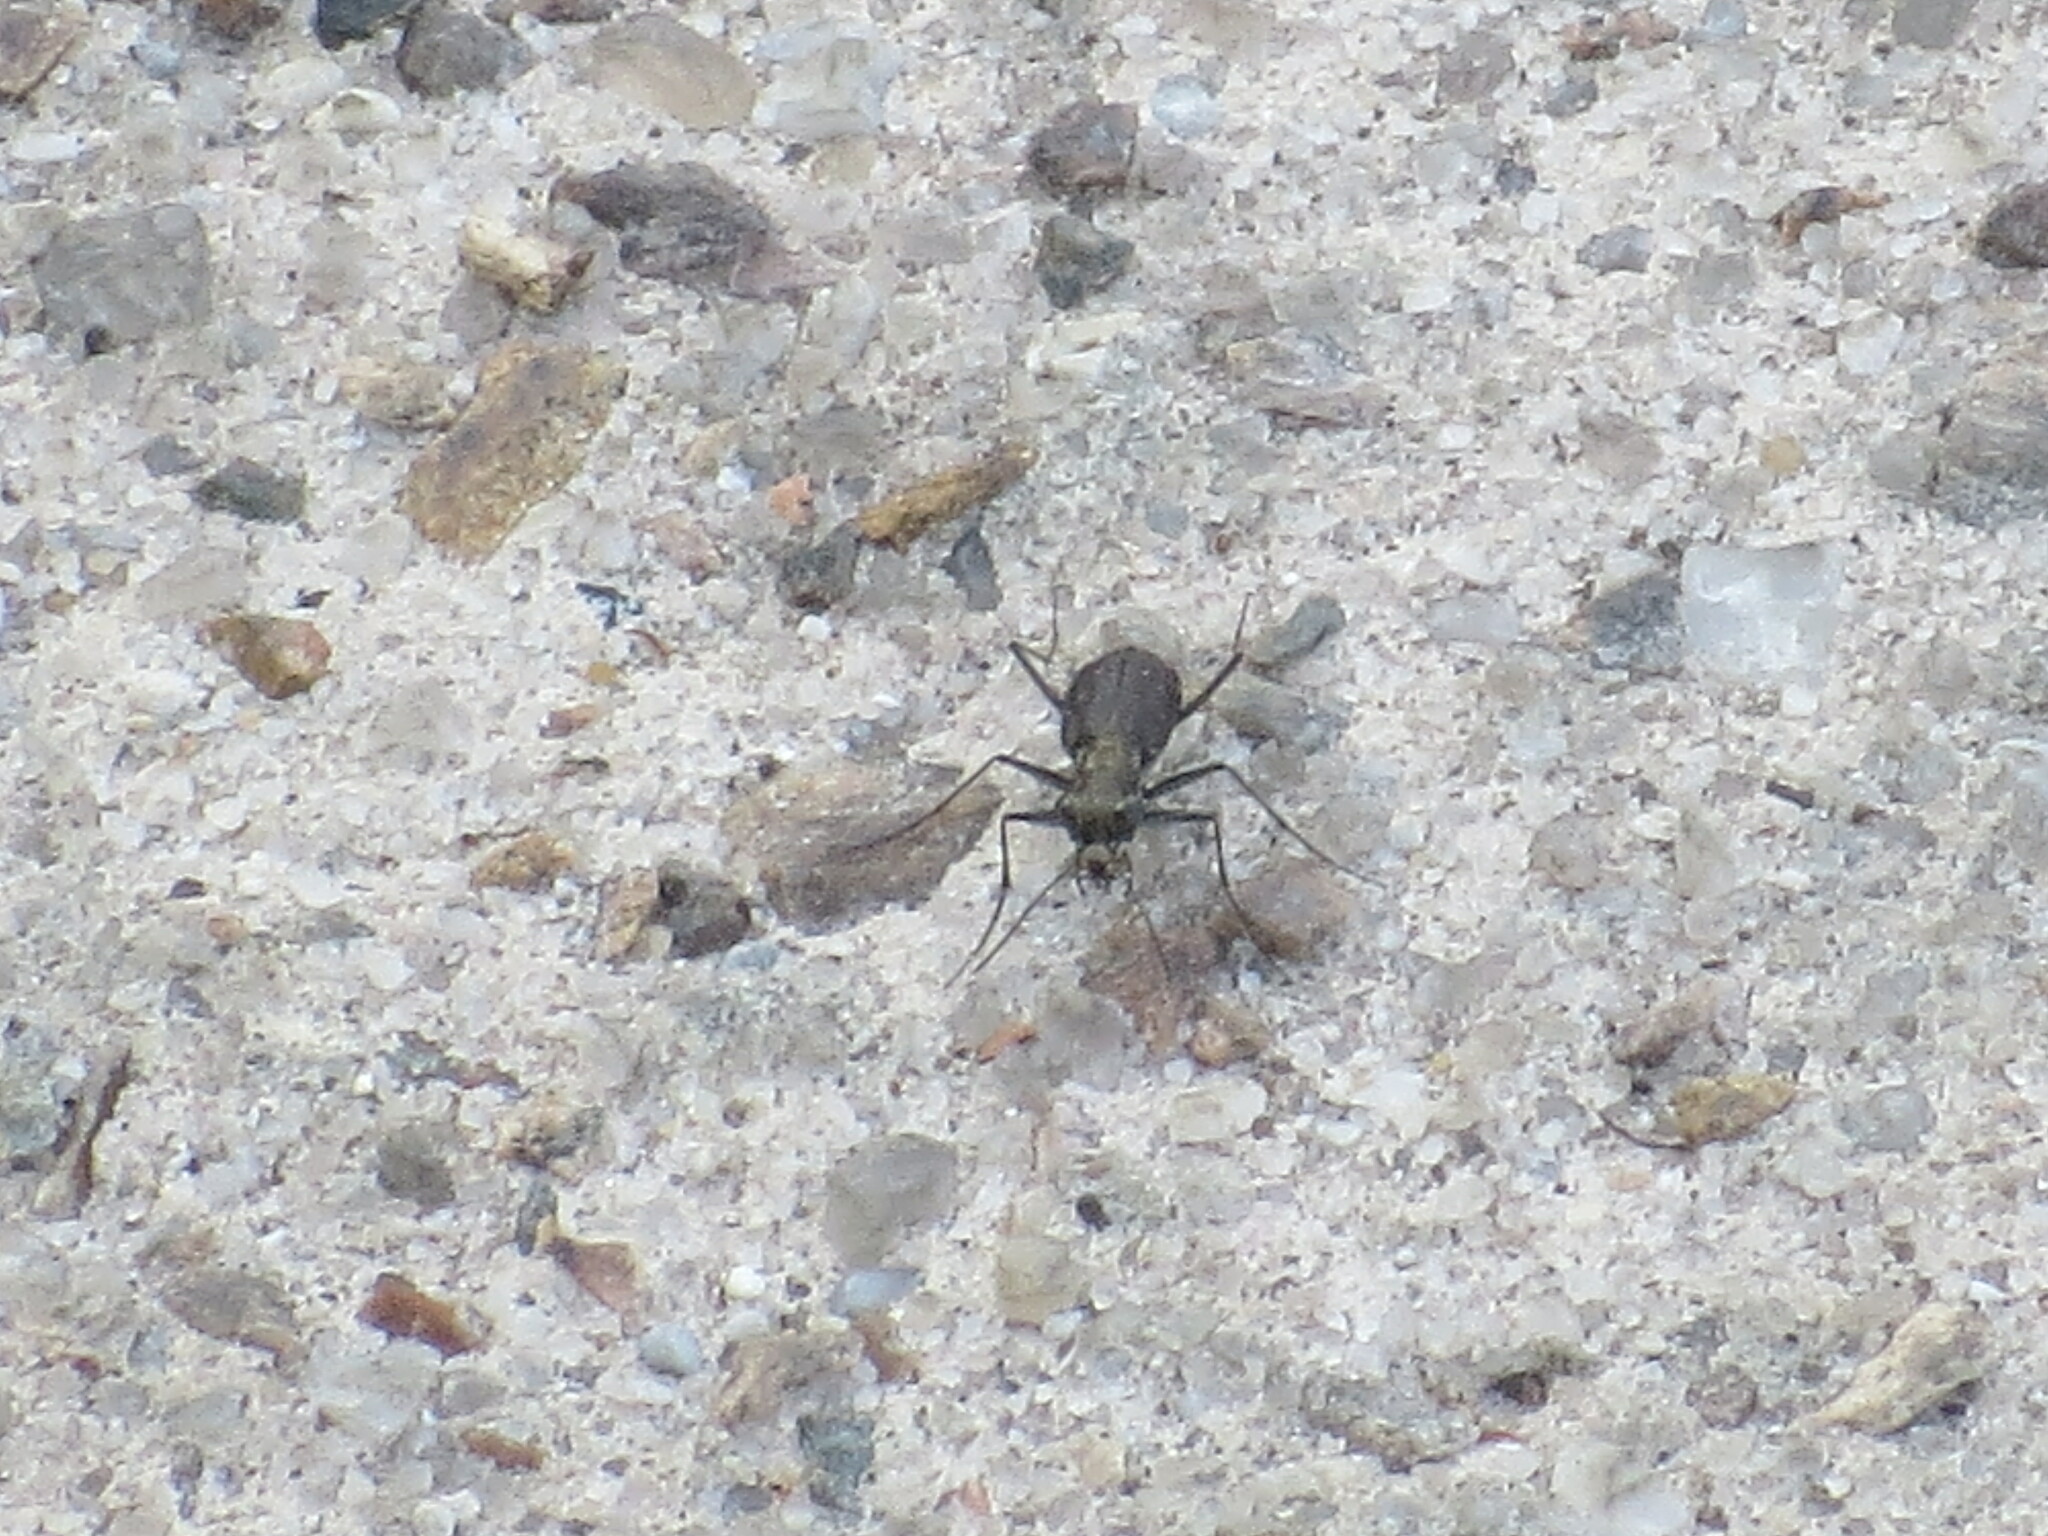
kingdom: Animalia
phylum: Arthropoda
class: Insecta
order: Coleoptera
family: Carabidae
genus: Cicindela
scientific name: Cicindela punctulata
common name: Punctured tiger beetle
